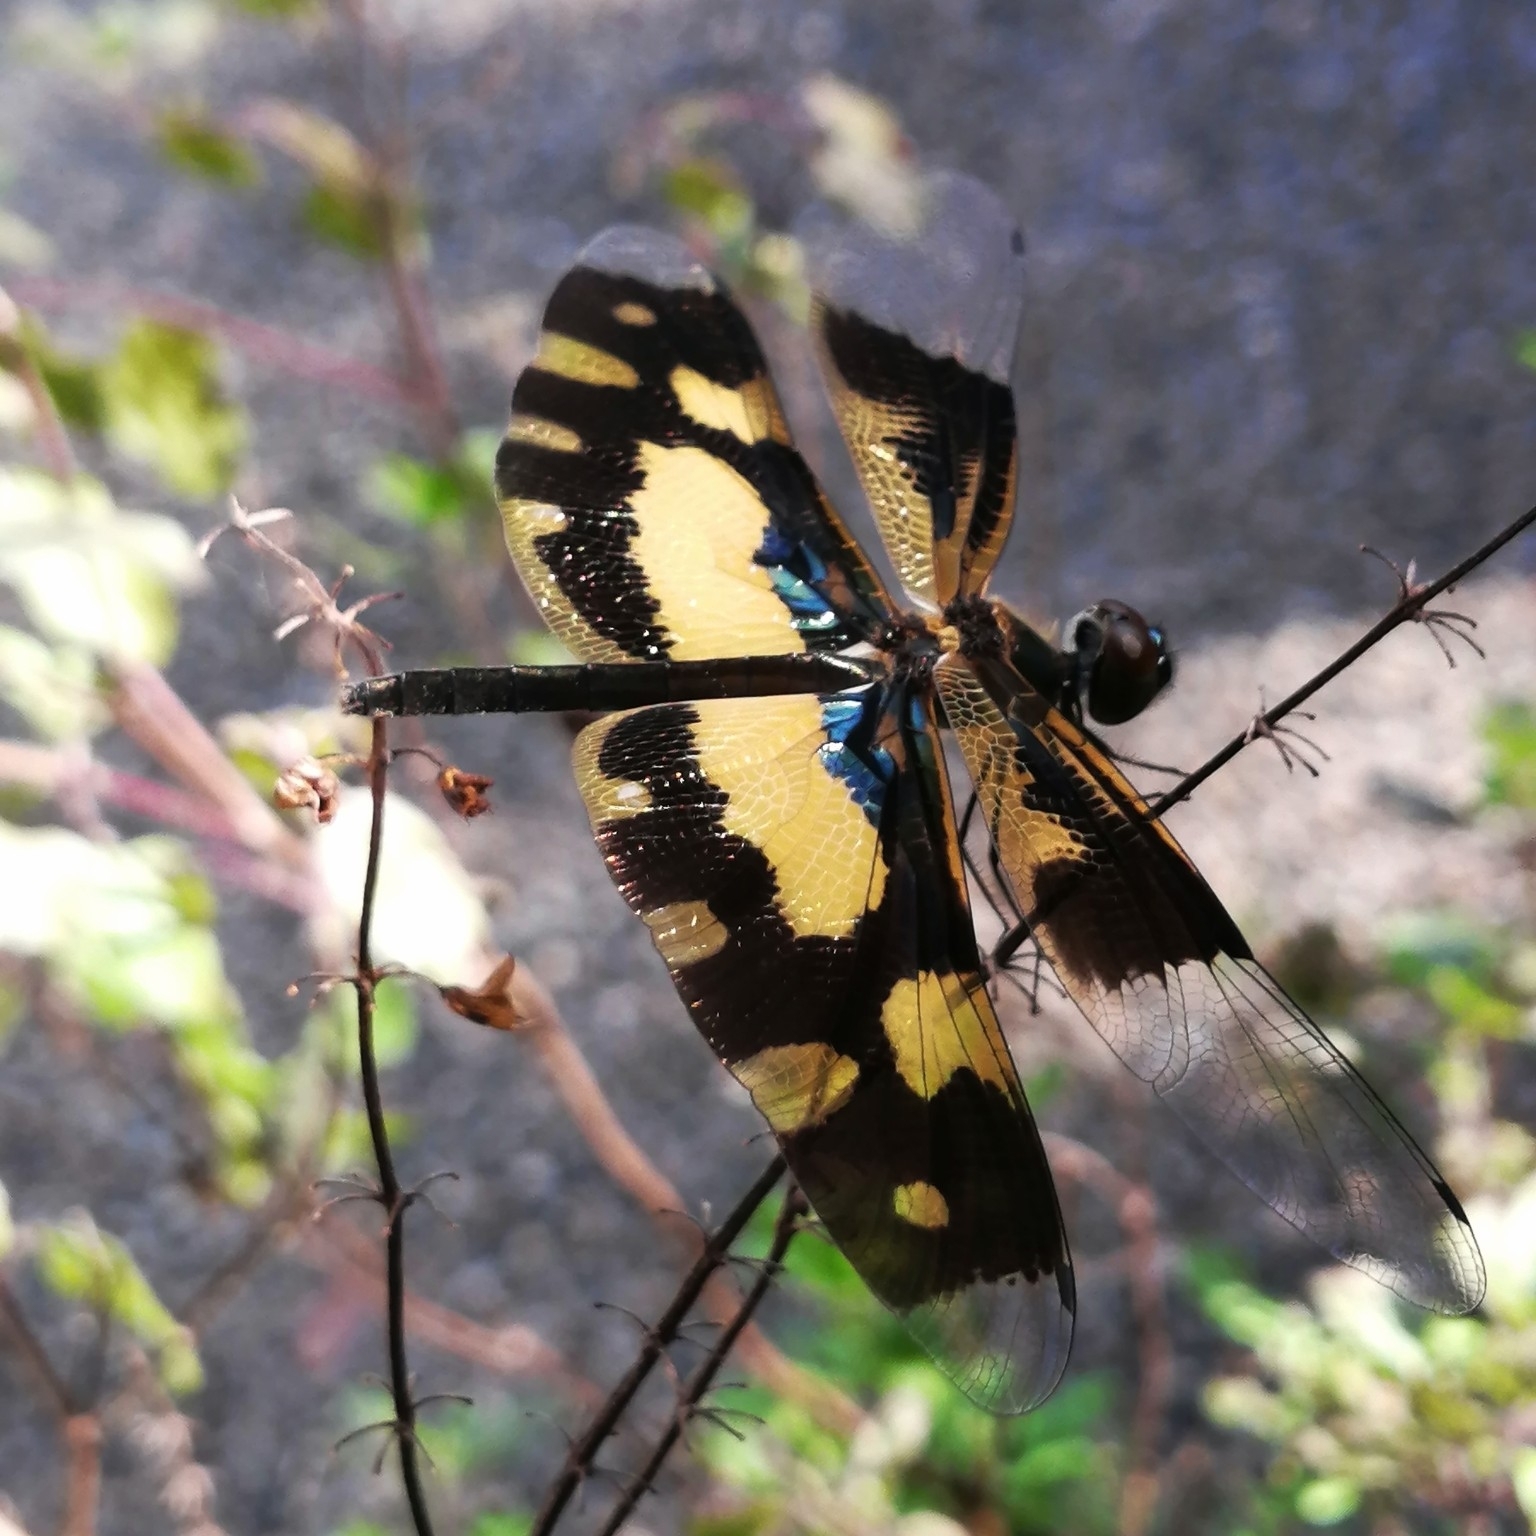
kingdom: Animalia
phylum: Arthropoda
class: Insecta
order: Odonata
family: Libellulidae
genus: Rhyothemis
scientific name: Rhyothemis variegata
